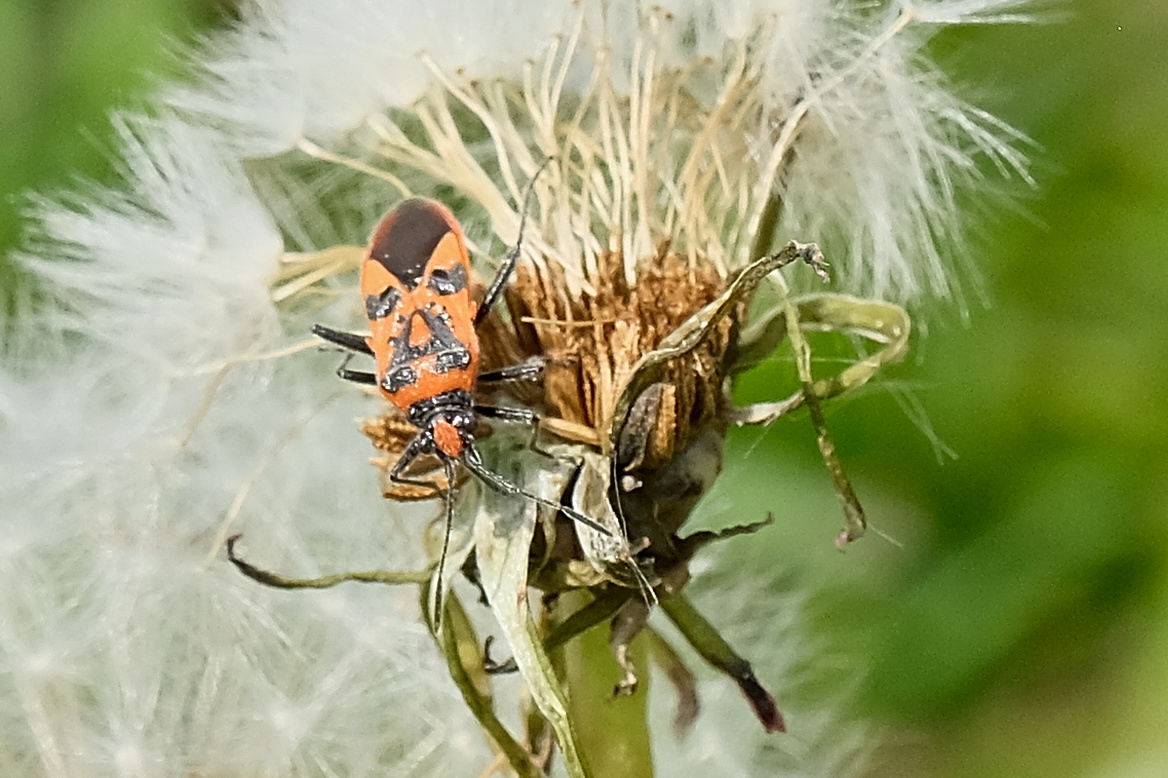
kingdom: Animalia
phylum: Arthropoda
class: Insecta
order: Hemiptera
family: Rhopalidae
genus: Corizus
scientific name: Corizus hyoscyami
